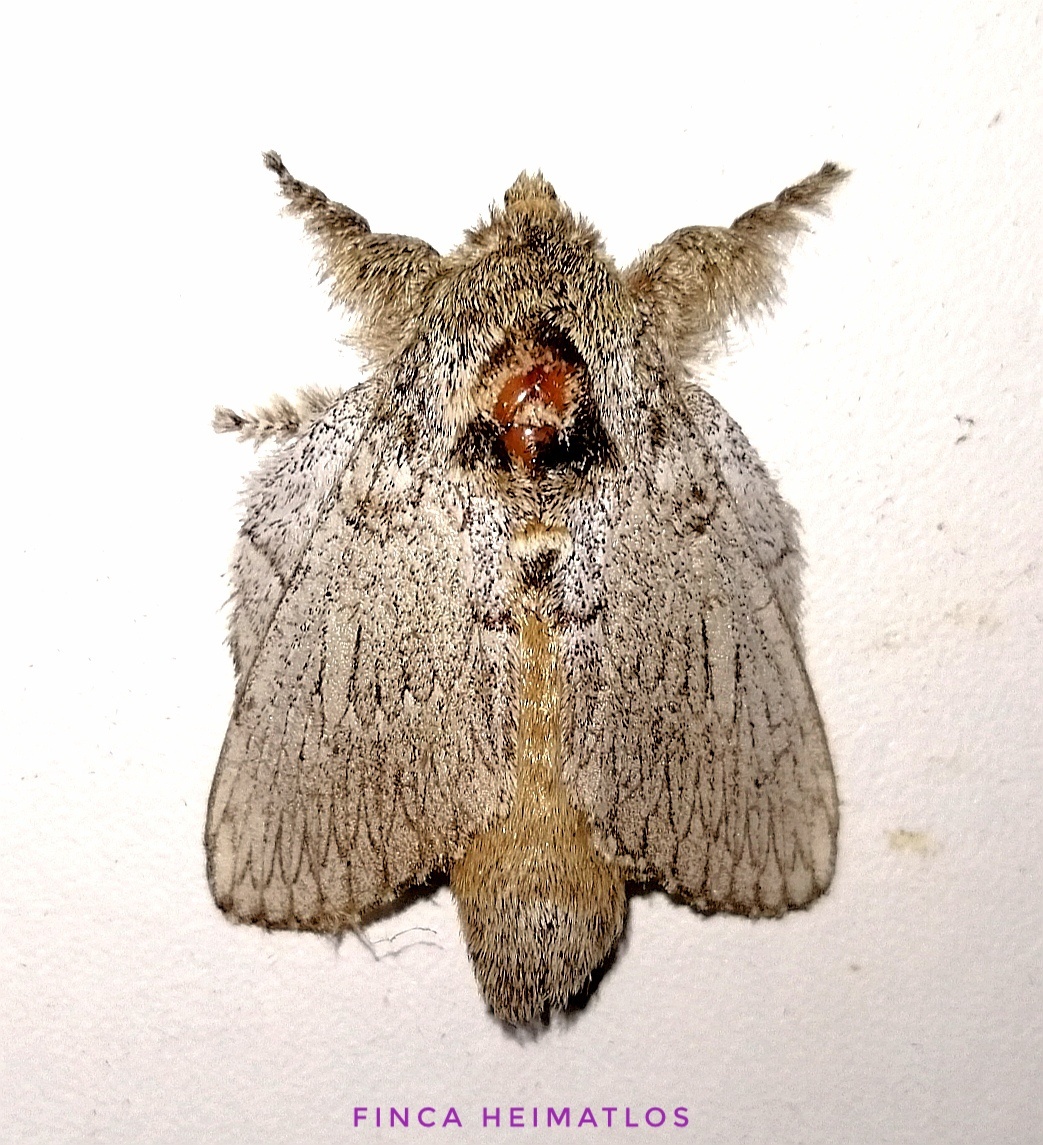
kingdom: Animalia
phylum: Arthropoda
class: Insecta
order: Lepidoptera
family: Lasiocampidae
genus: Euglyphis
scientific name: Euglyphis phidonia
